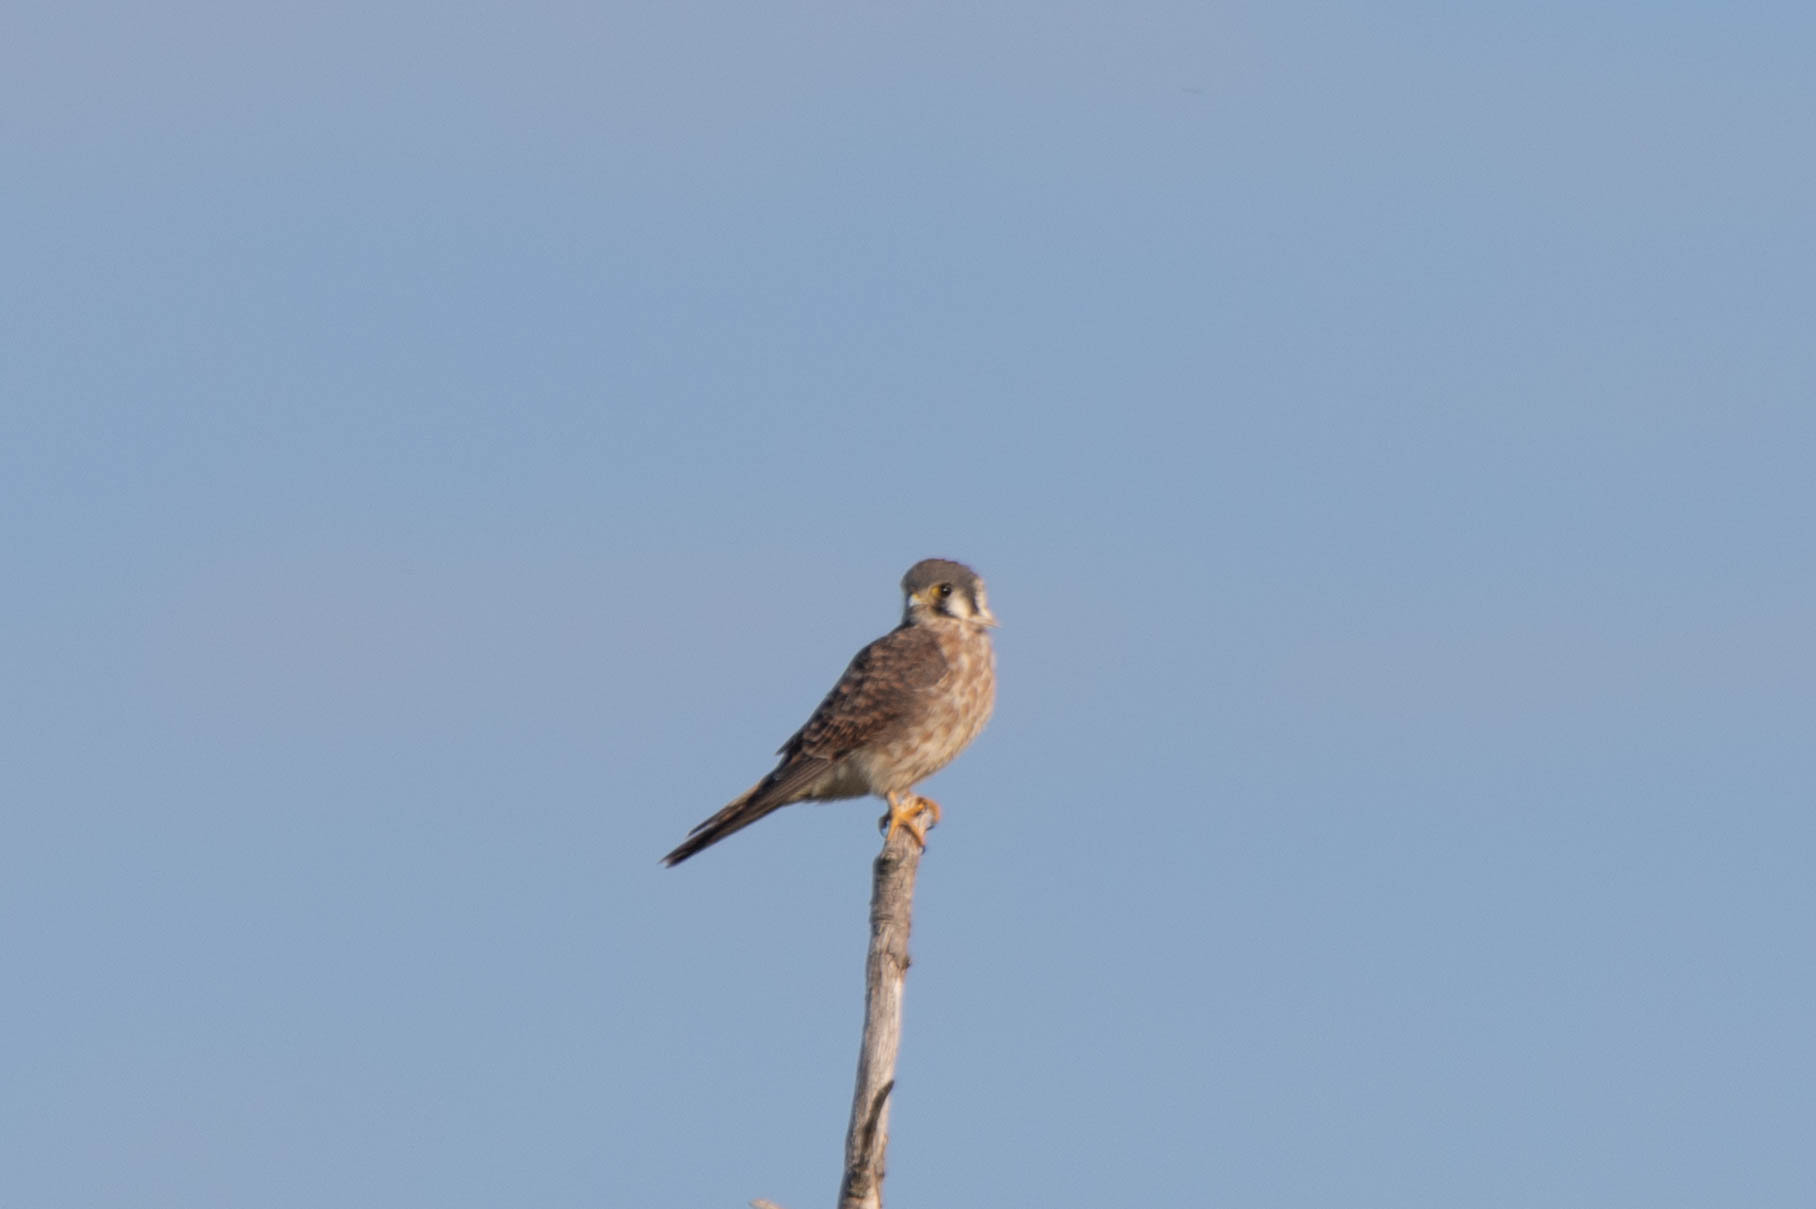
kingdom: Animalia
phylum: Chordata
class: Aves
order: Falconiformes
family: Falconidae
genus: Falco
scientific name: Falco sparverius
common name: American kestrel
